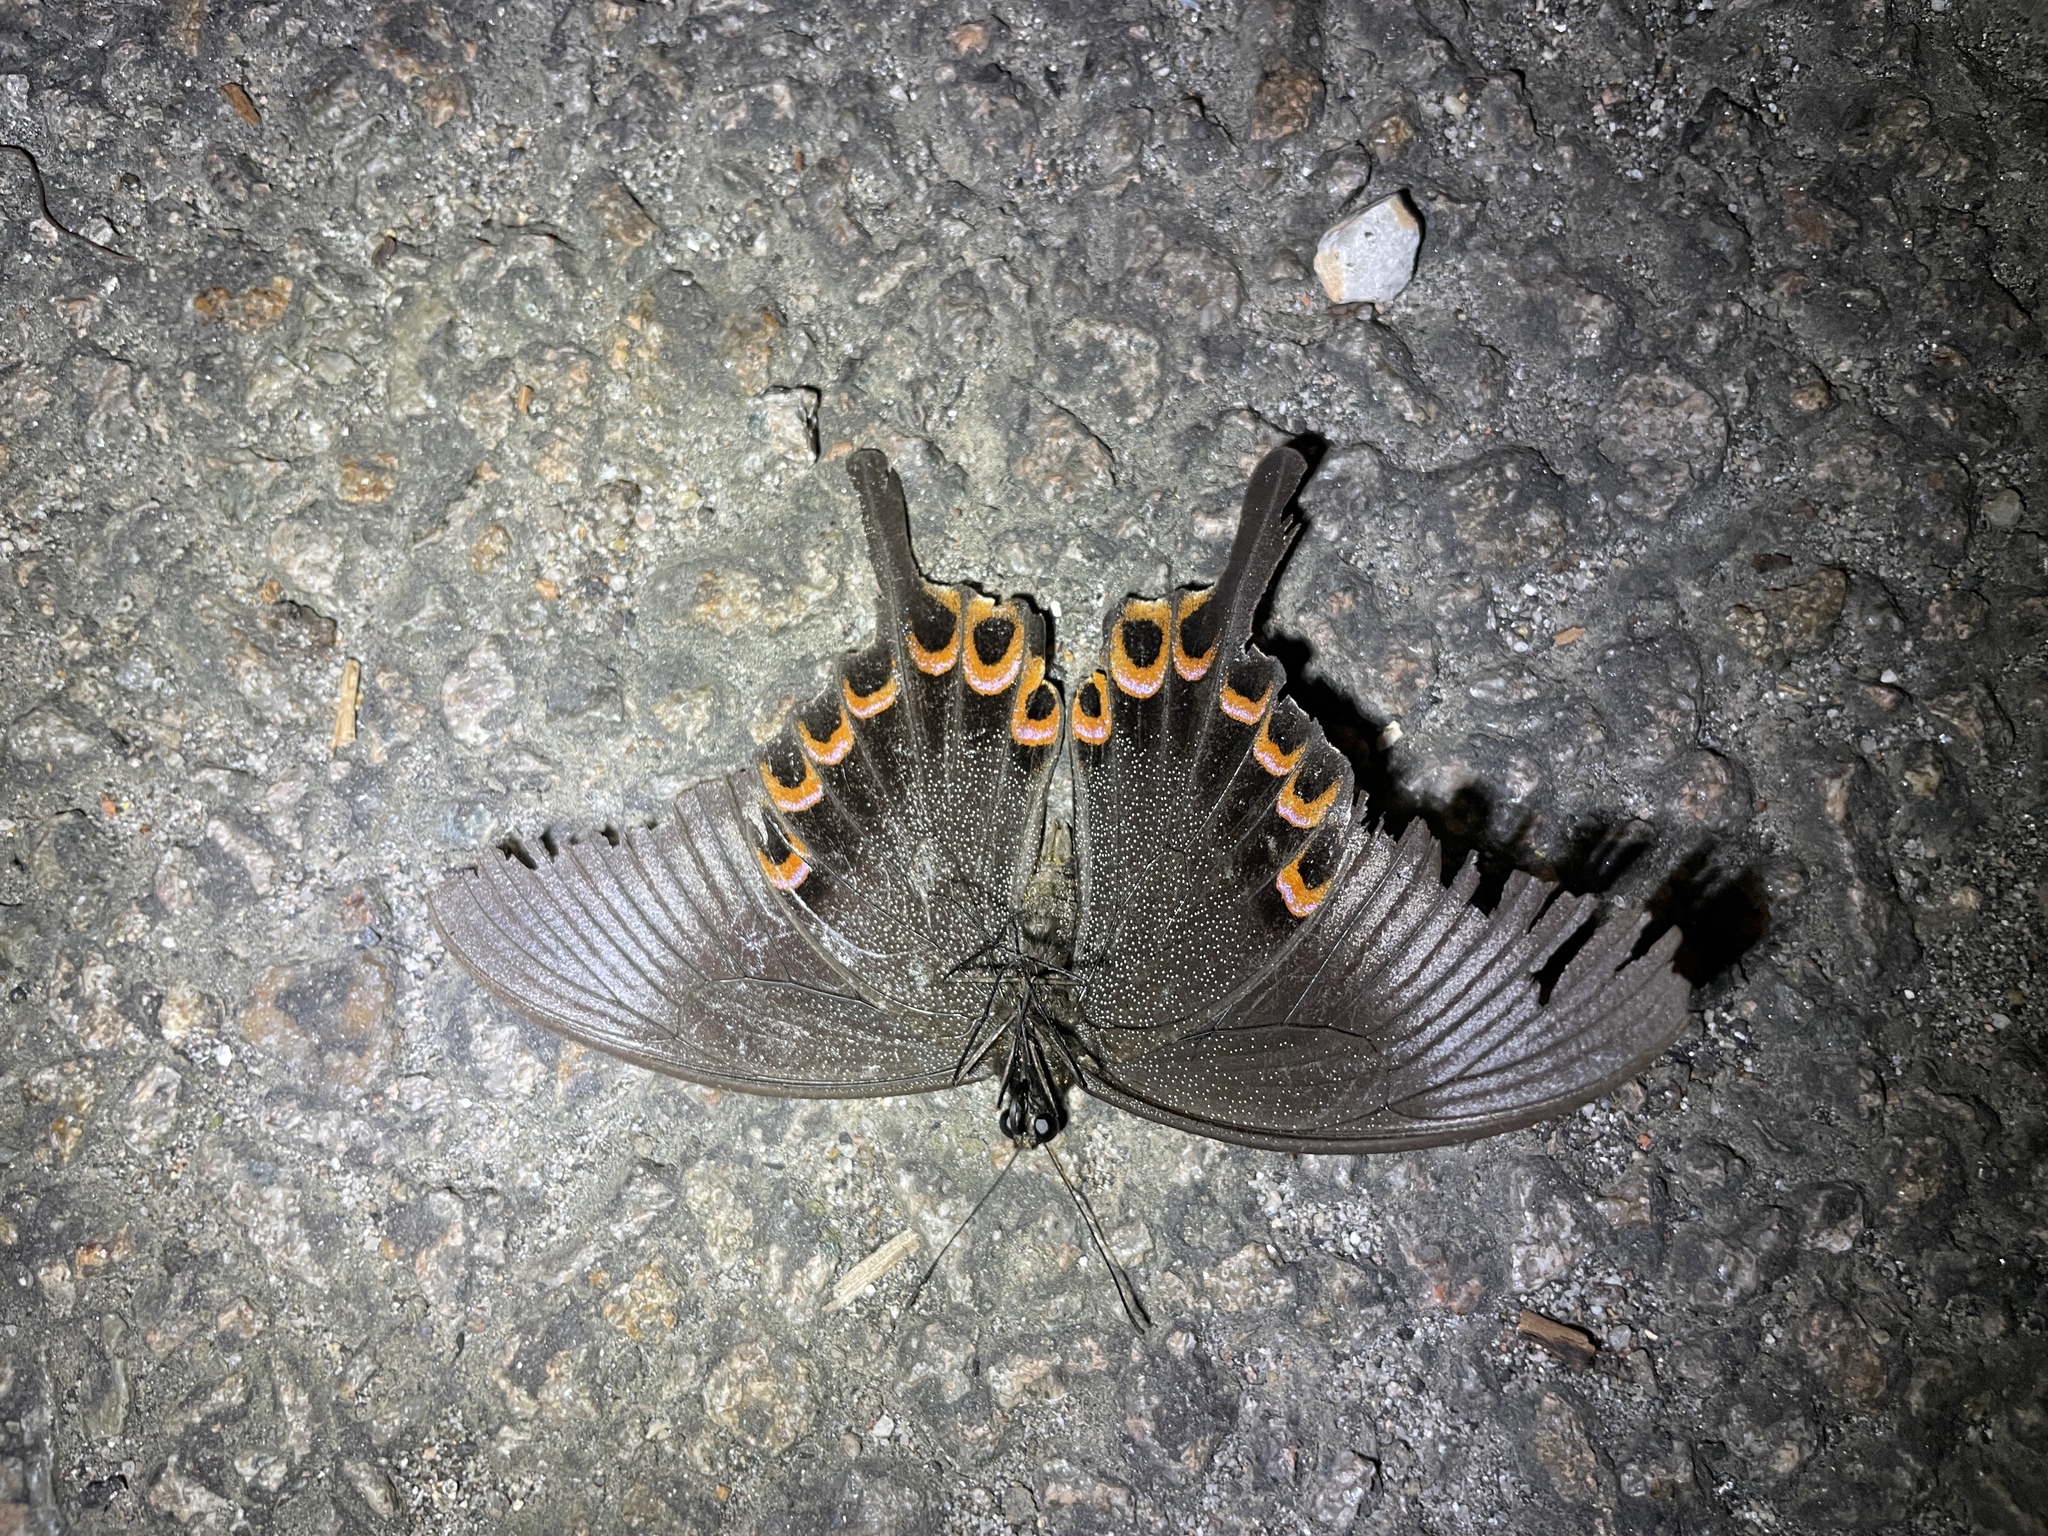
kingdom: Animalia
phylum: Arthropoda
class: Insecta
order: Lepidoptera
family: Papilionidae
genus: Papilio
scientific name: Papilio paris
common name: Paris peacock
